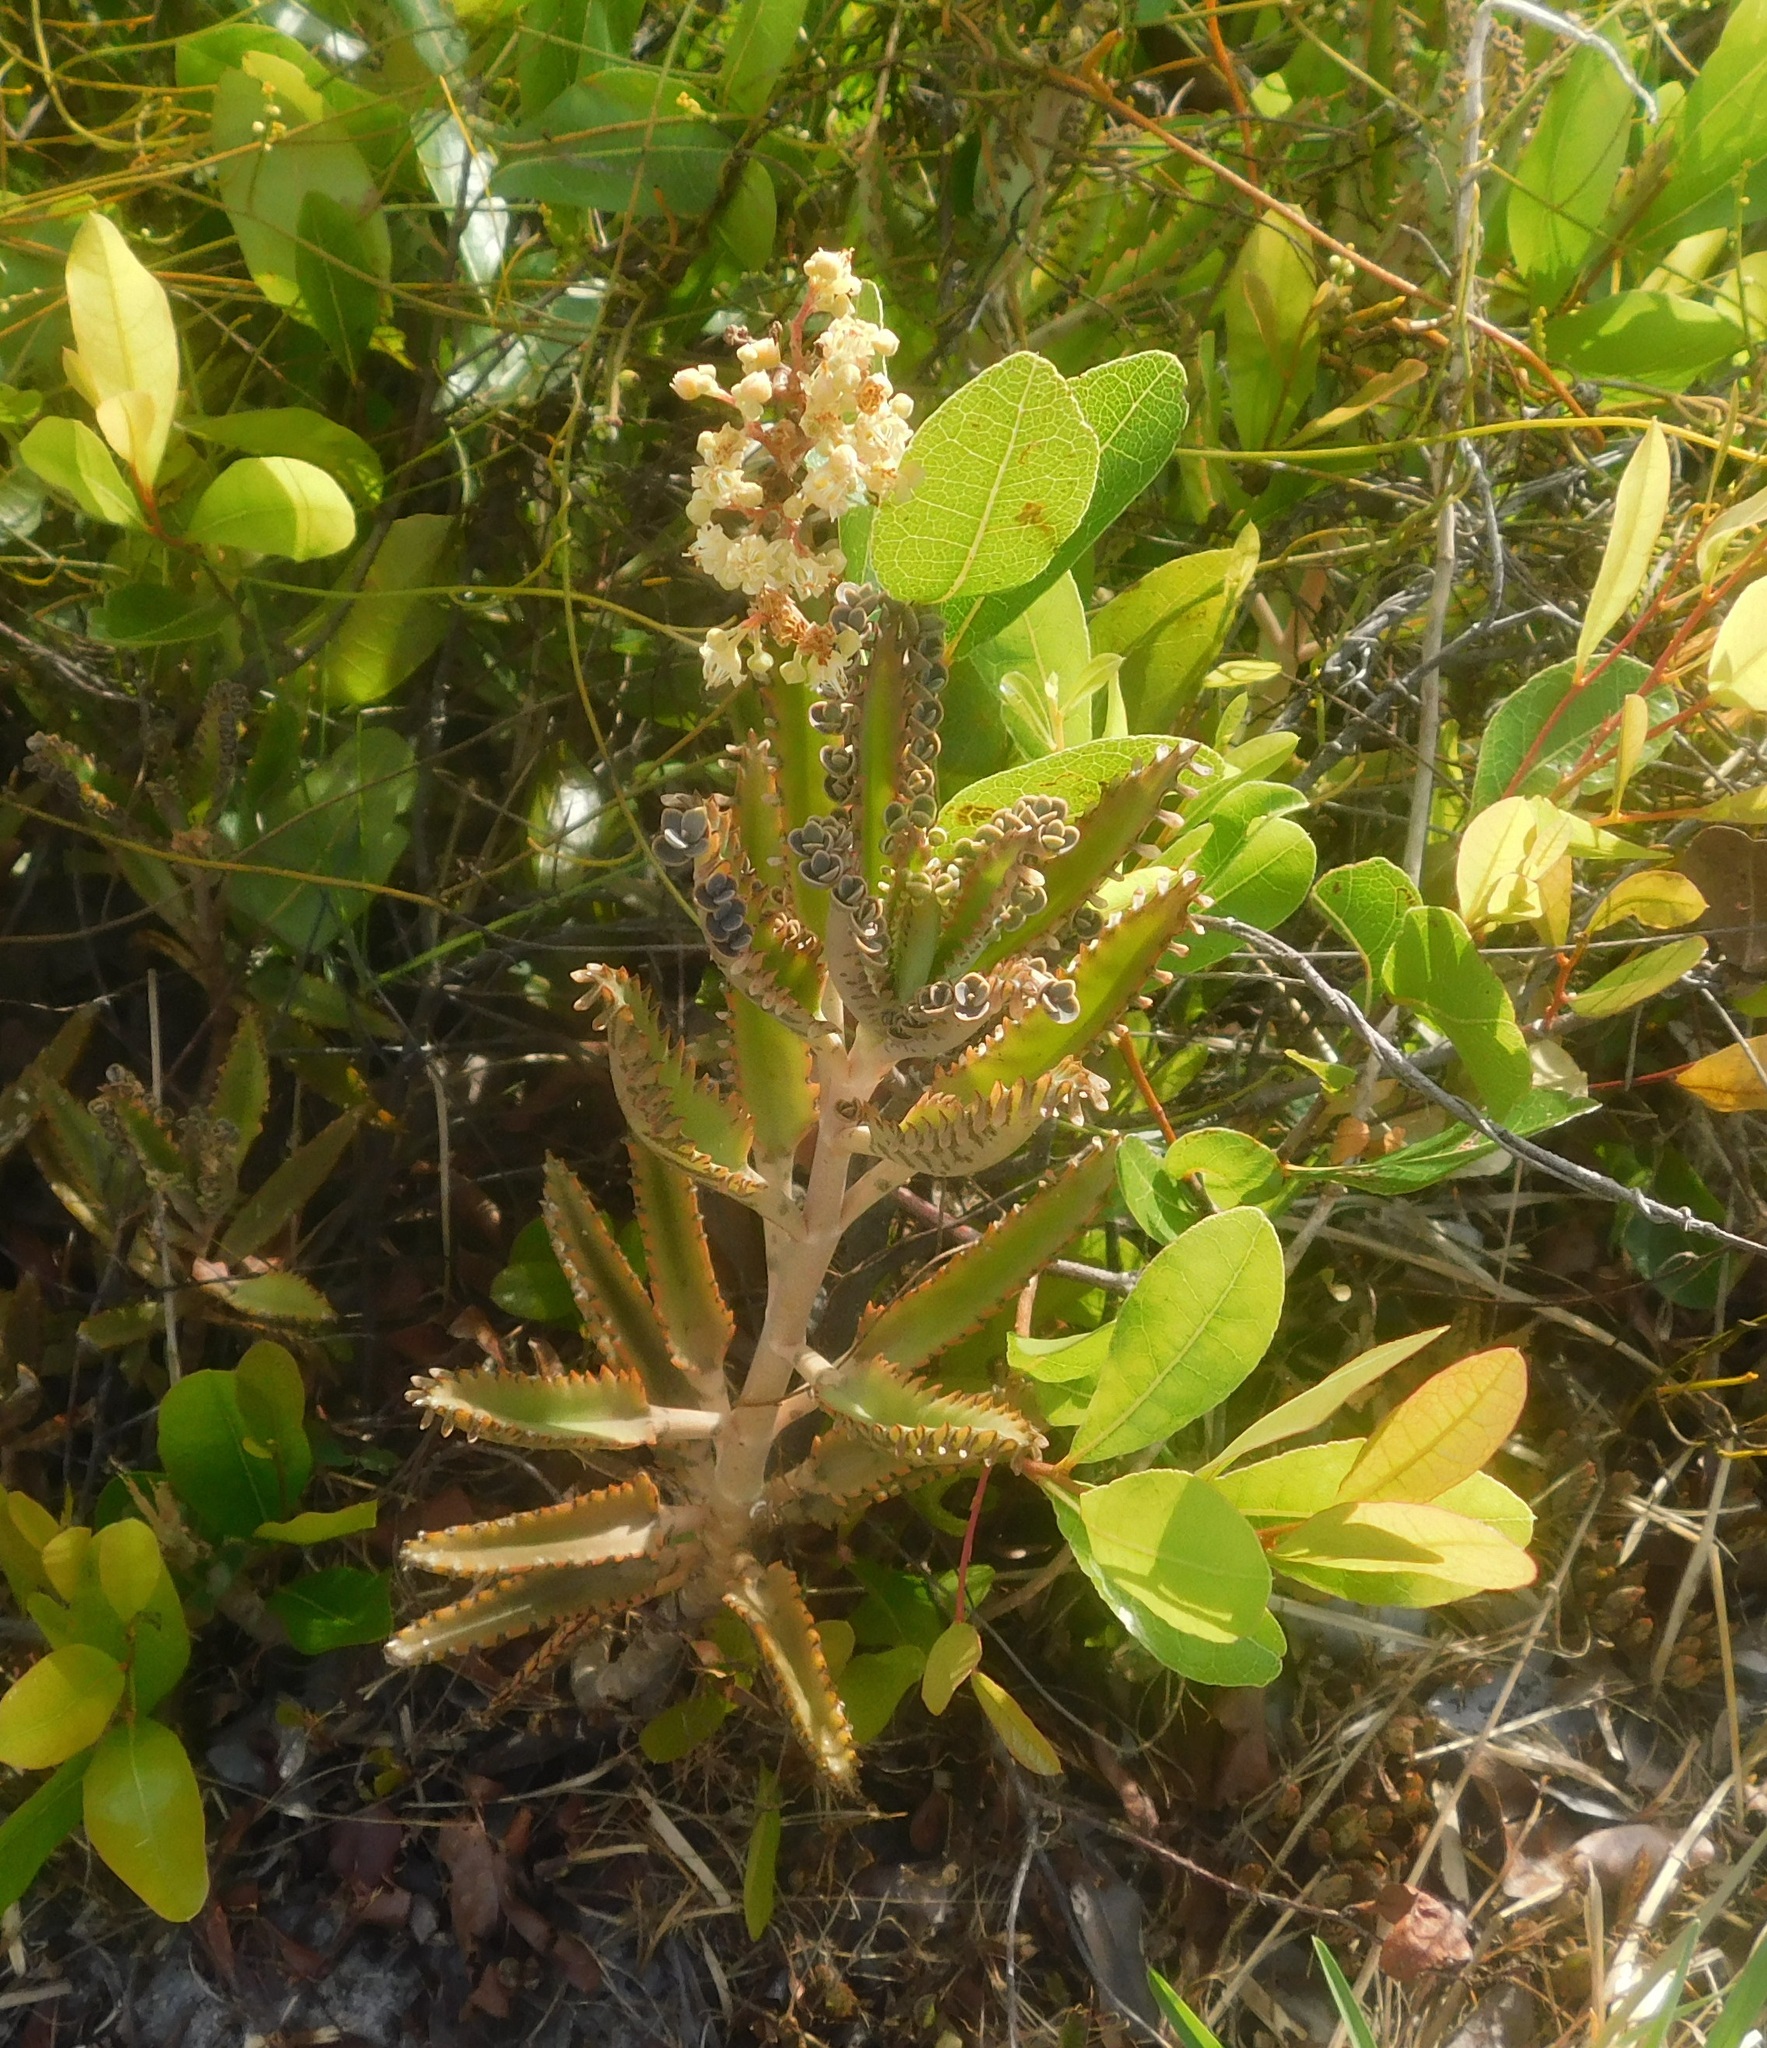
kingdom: Plantae
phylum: Tracheophyta
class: Magnoliopsida
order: Saxifragales
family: Crassulaceae
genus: Kalanchoe
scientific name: Kalanchoe houghtonii
